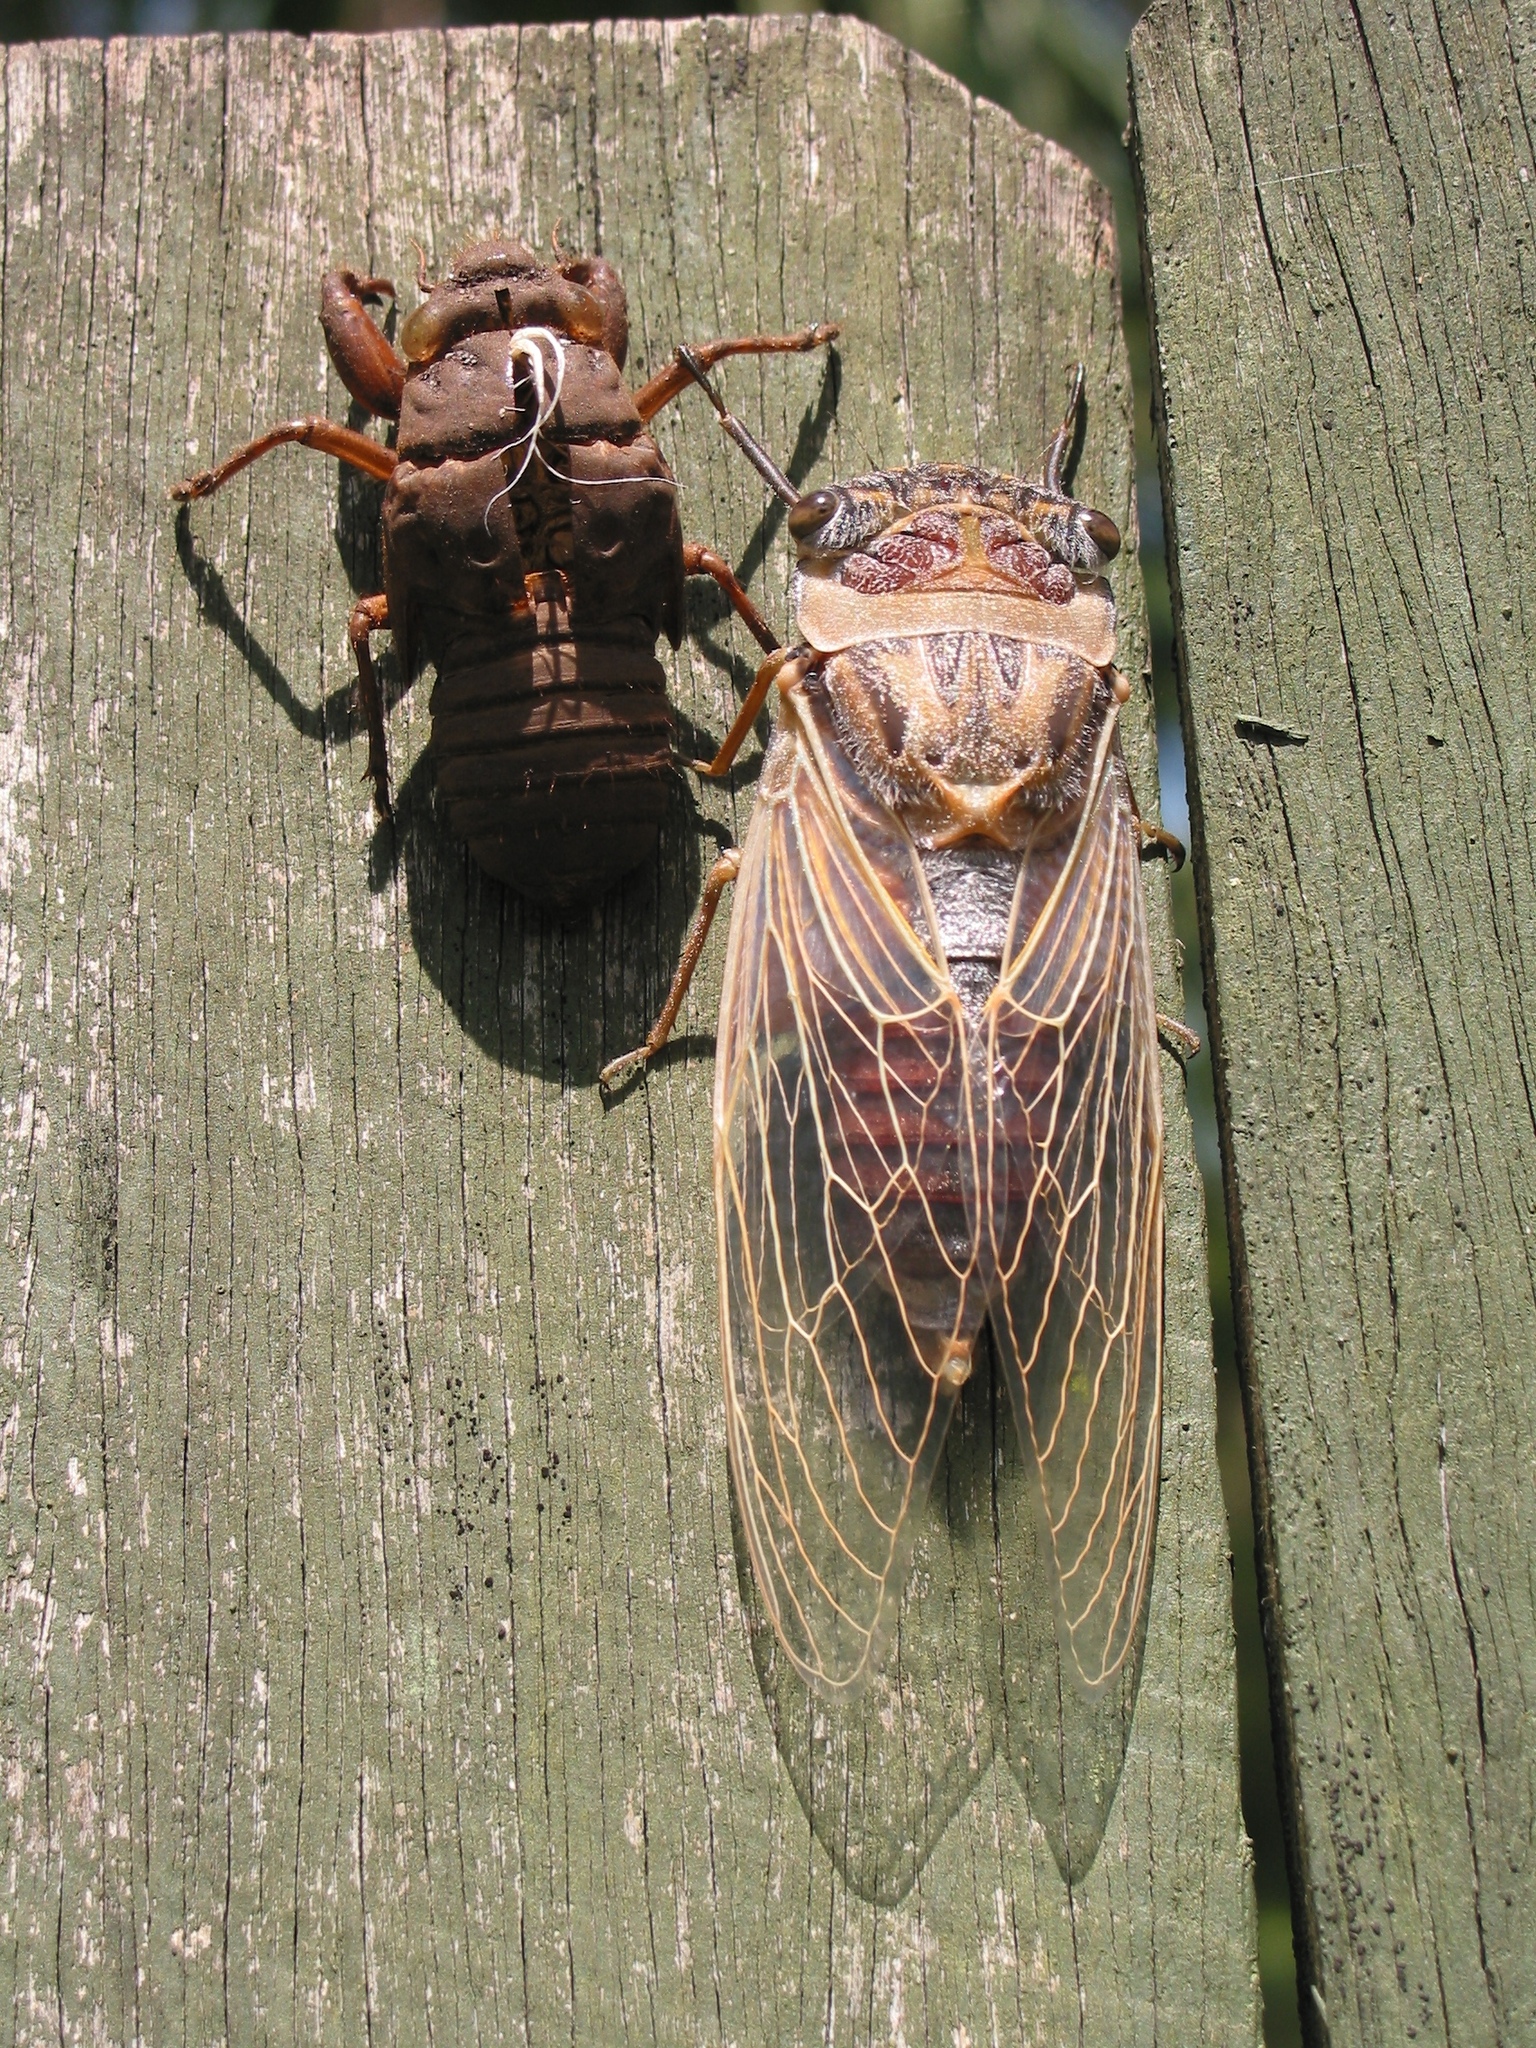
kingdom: Animalia
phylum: Arthropoda
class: Insecta
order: Hemiptera
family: Cicadidae
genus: Thopha
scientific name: Thopha saccata
